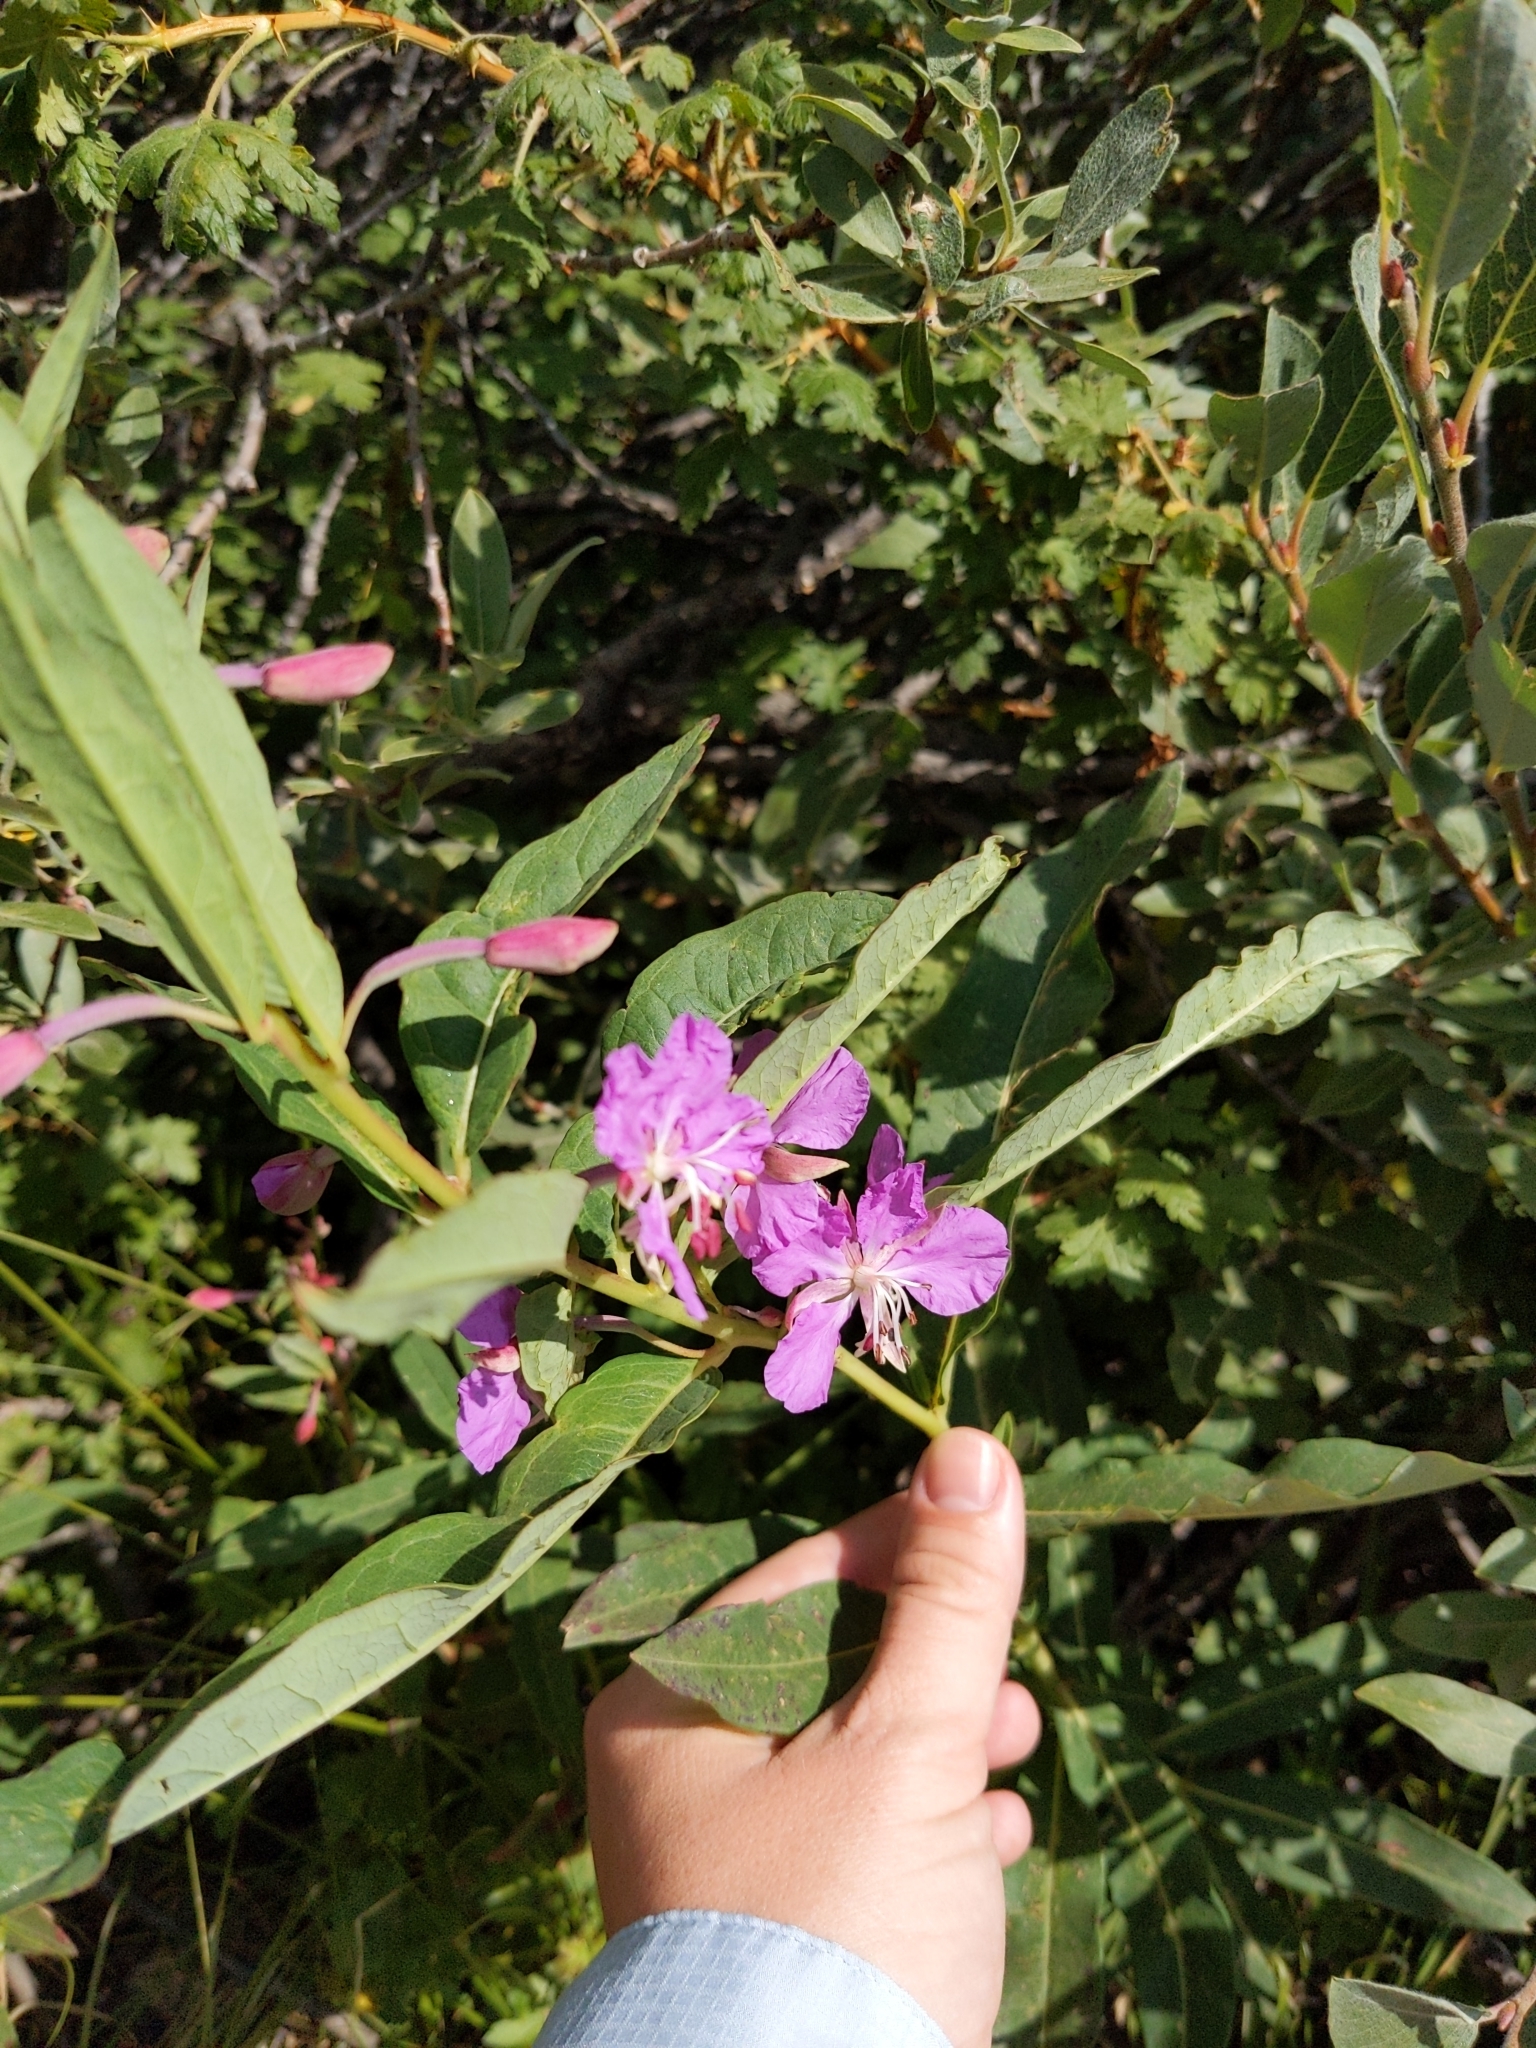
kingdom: Plantae
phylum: Tracheophyta
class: Magnoliopsida
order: Myrtales
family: Onagraceae
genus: Chamaenerion
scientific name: Chamaenerion angustifolium
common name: Fireweed
